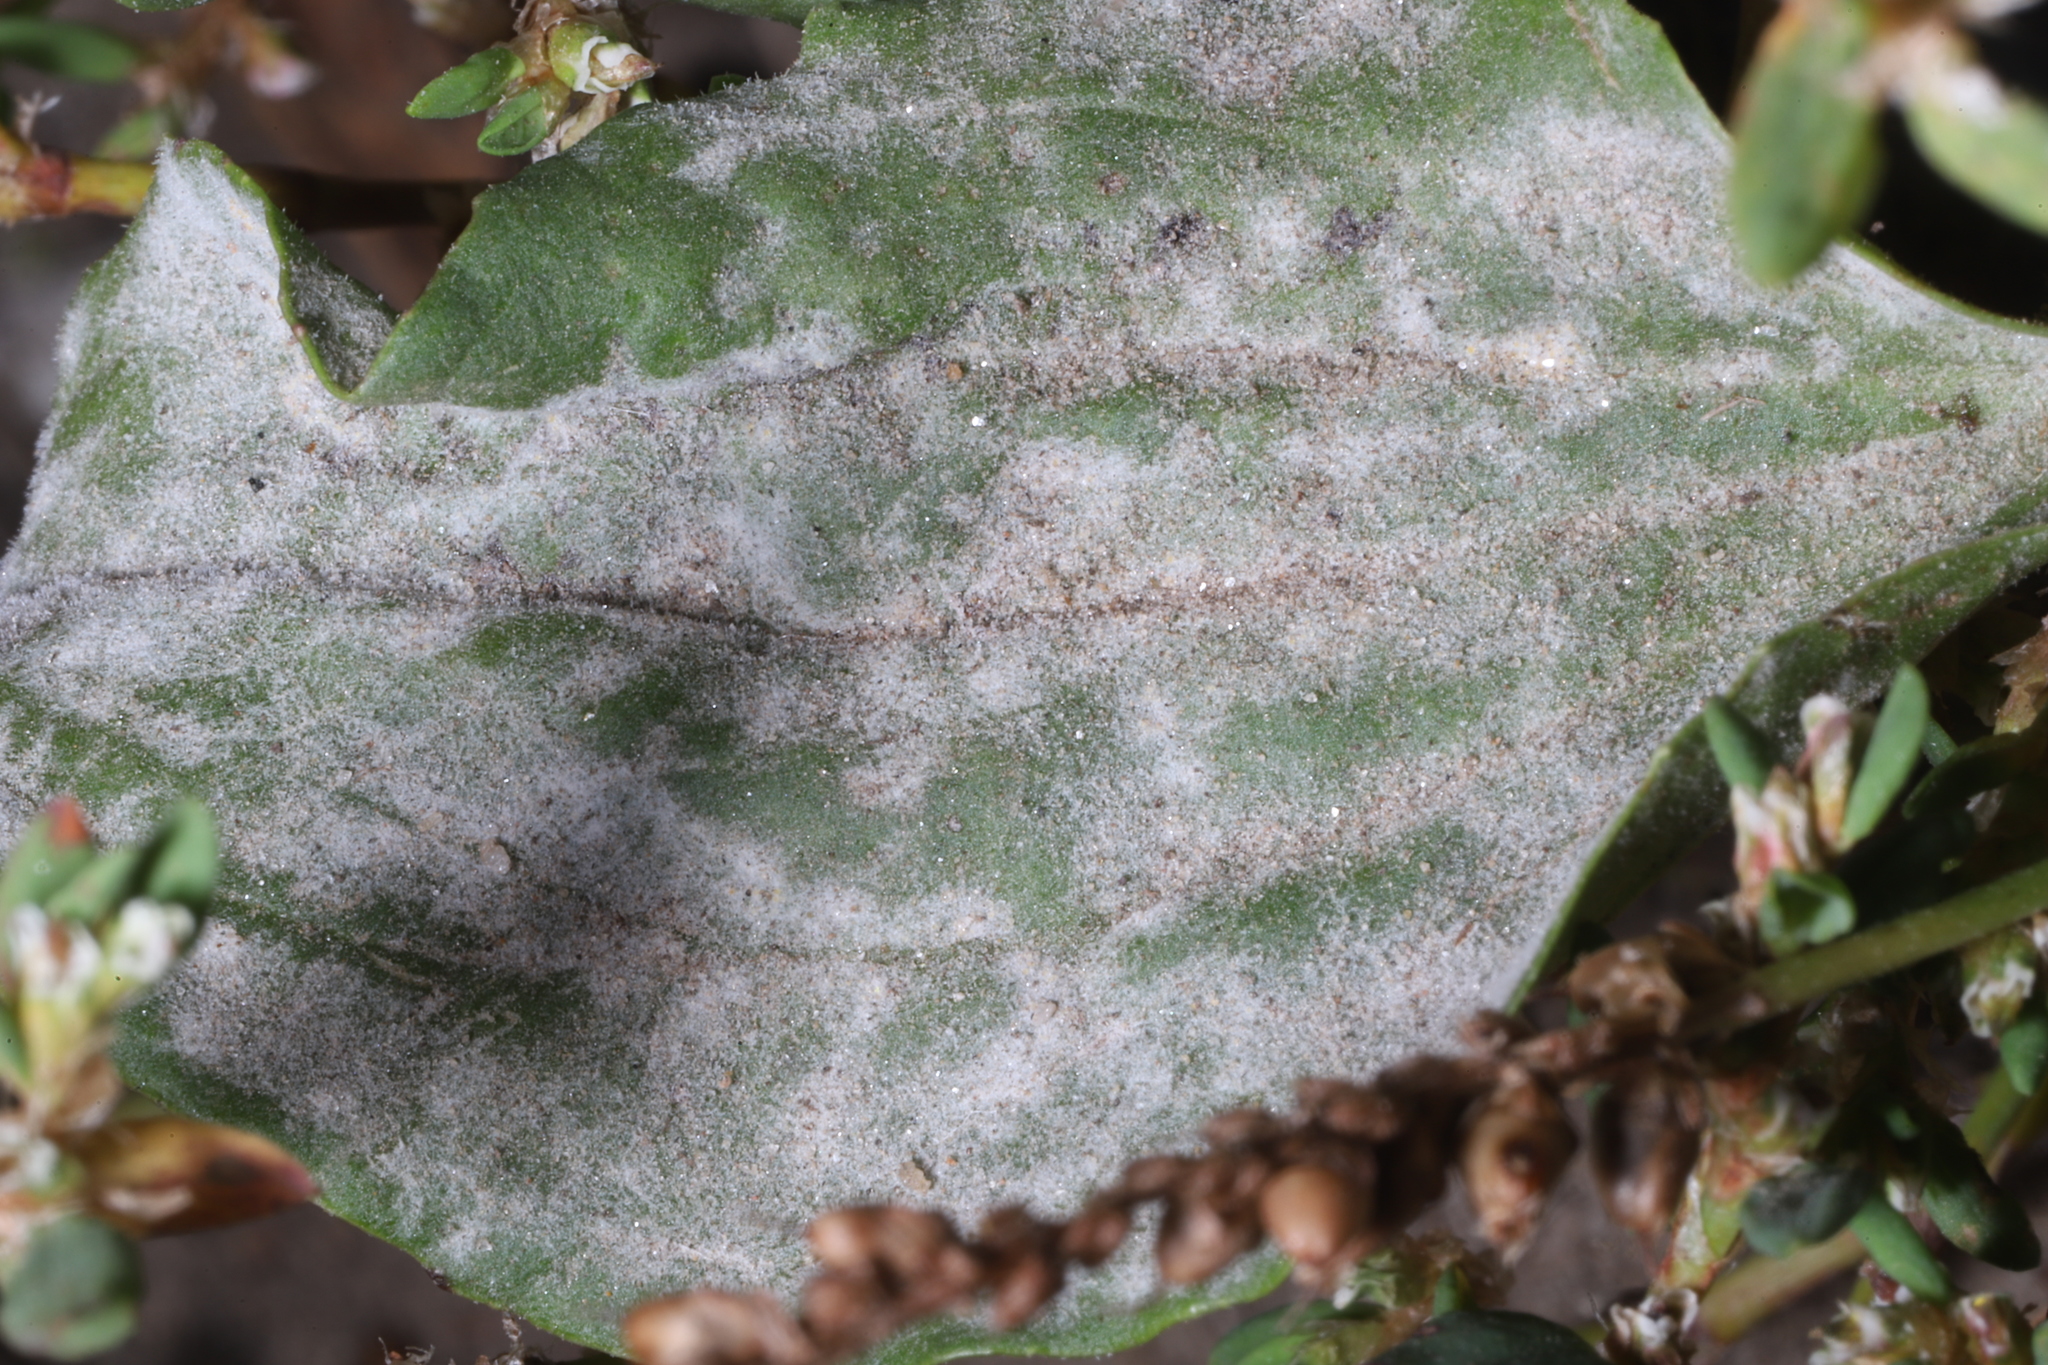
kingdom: Fungi
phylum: Ascomycota
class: Leotiomycetes
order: Helotiales
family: Erysiphaceae
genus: Golovinomyces
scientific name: Golovinomyces sordidus
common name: Plantain mildew
